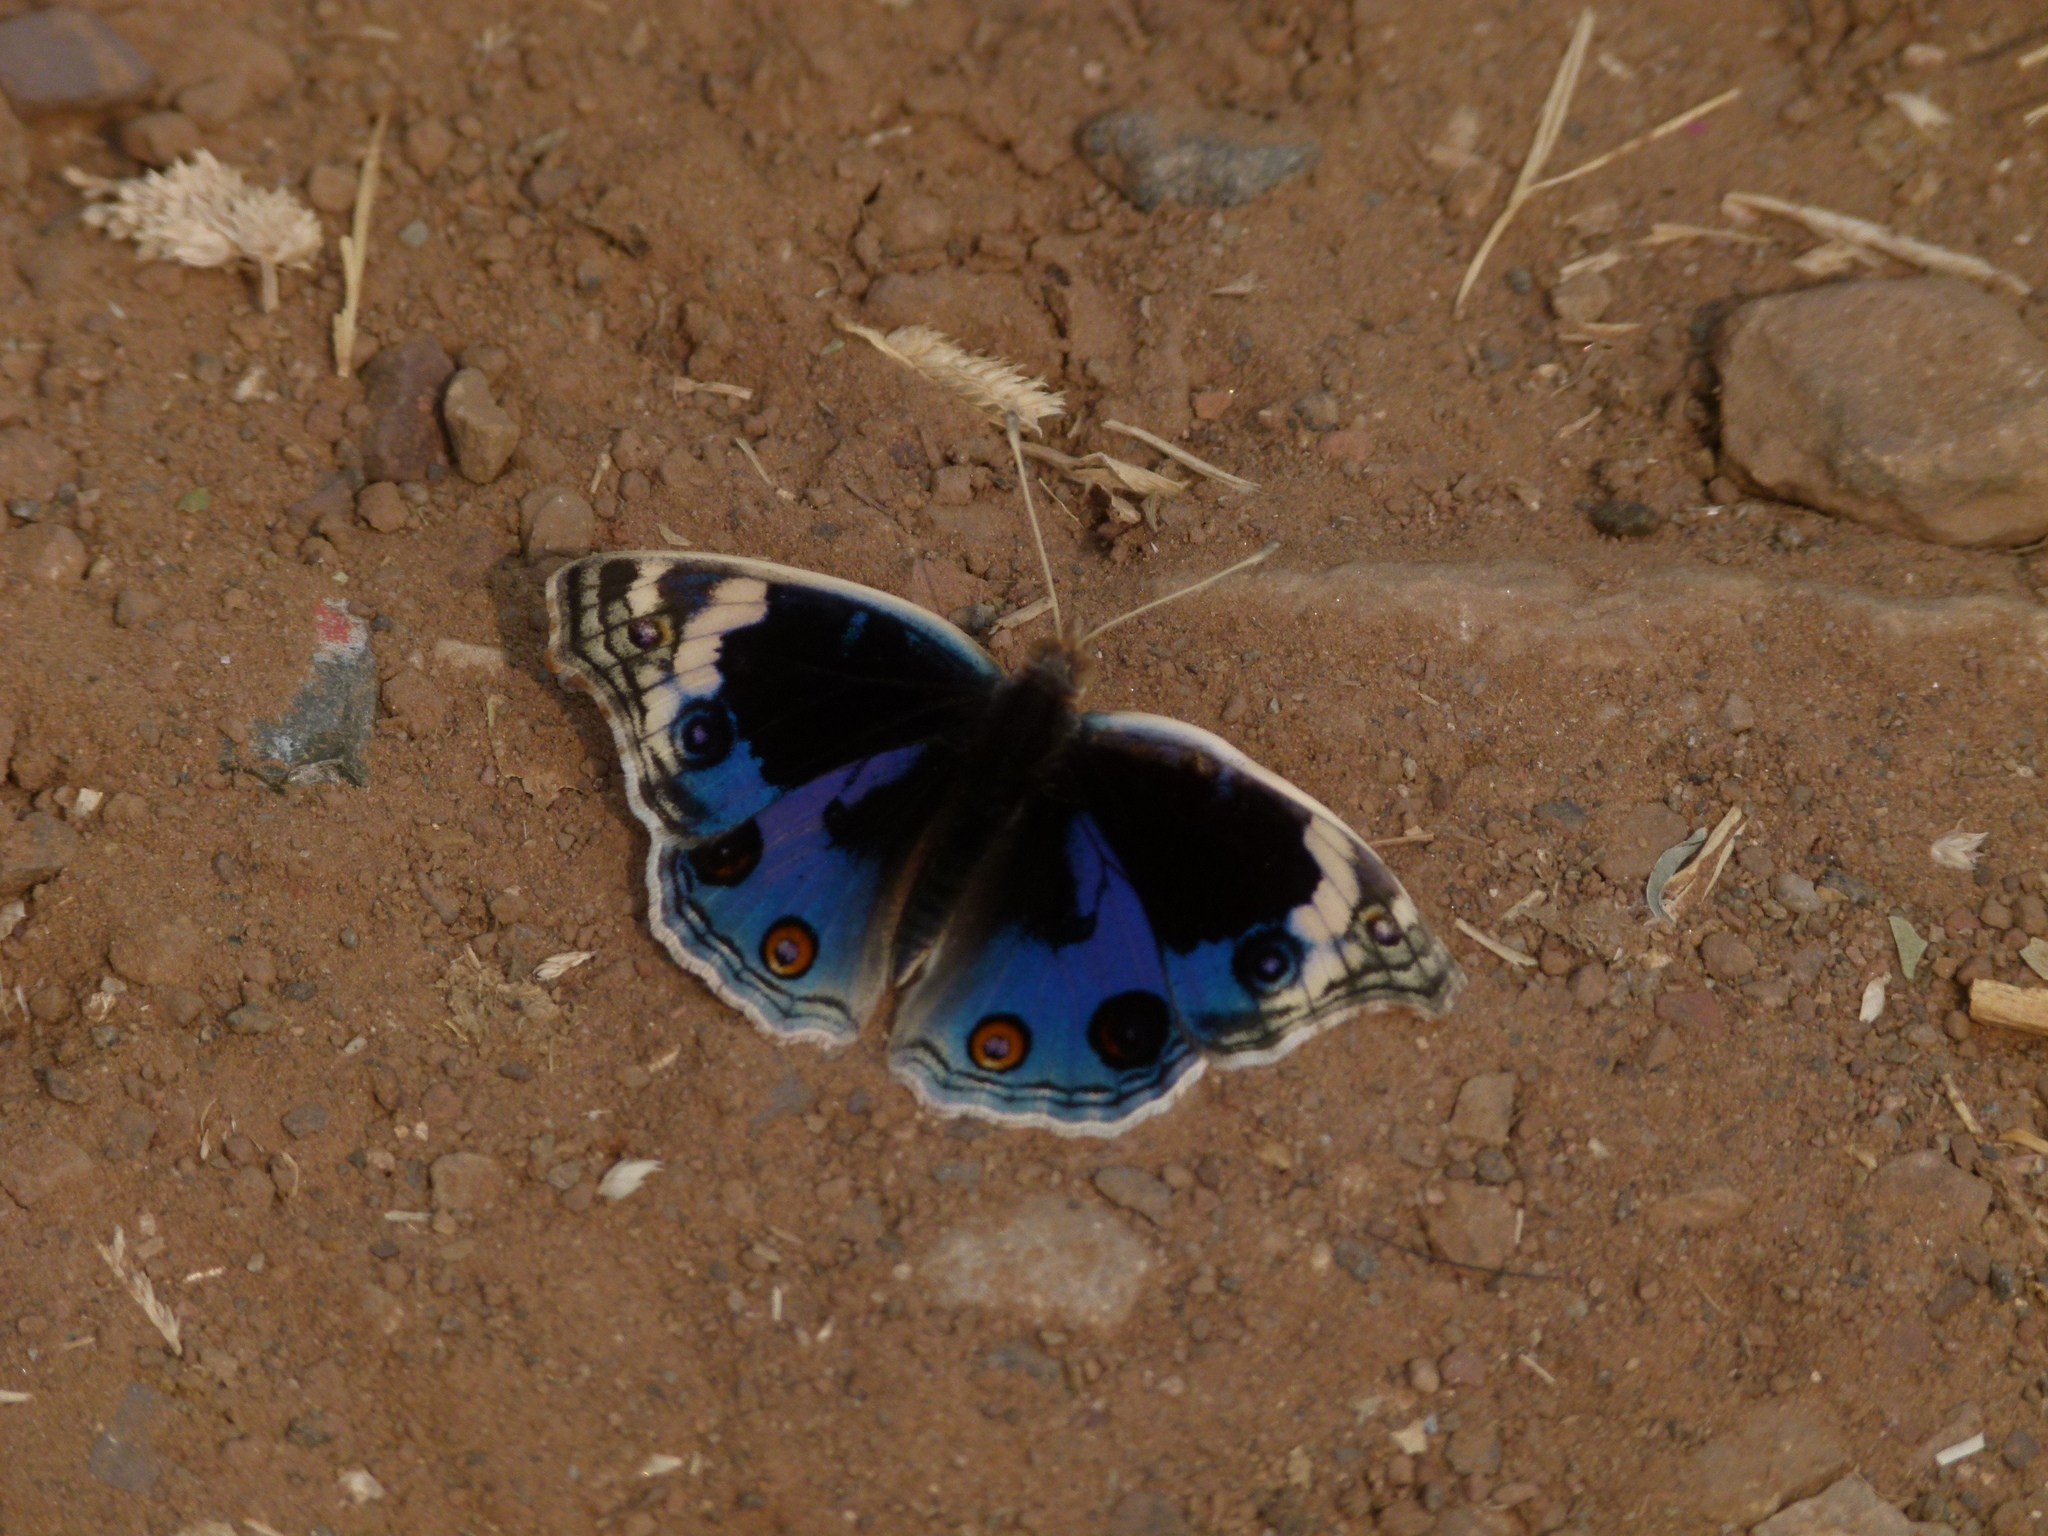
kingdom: Animalia
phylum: Arthropoda
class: Insecta
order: Lepidoptera
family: Nymphalidae
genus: Junonia
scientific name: Junonia orithya
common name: Blue pansy
